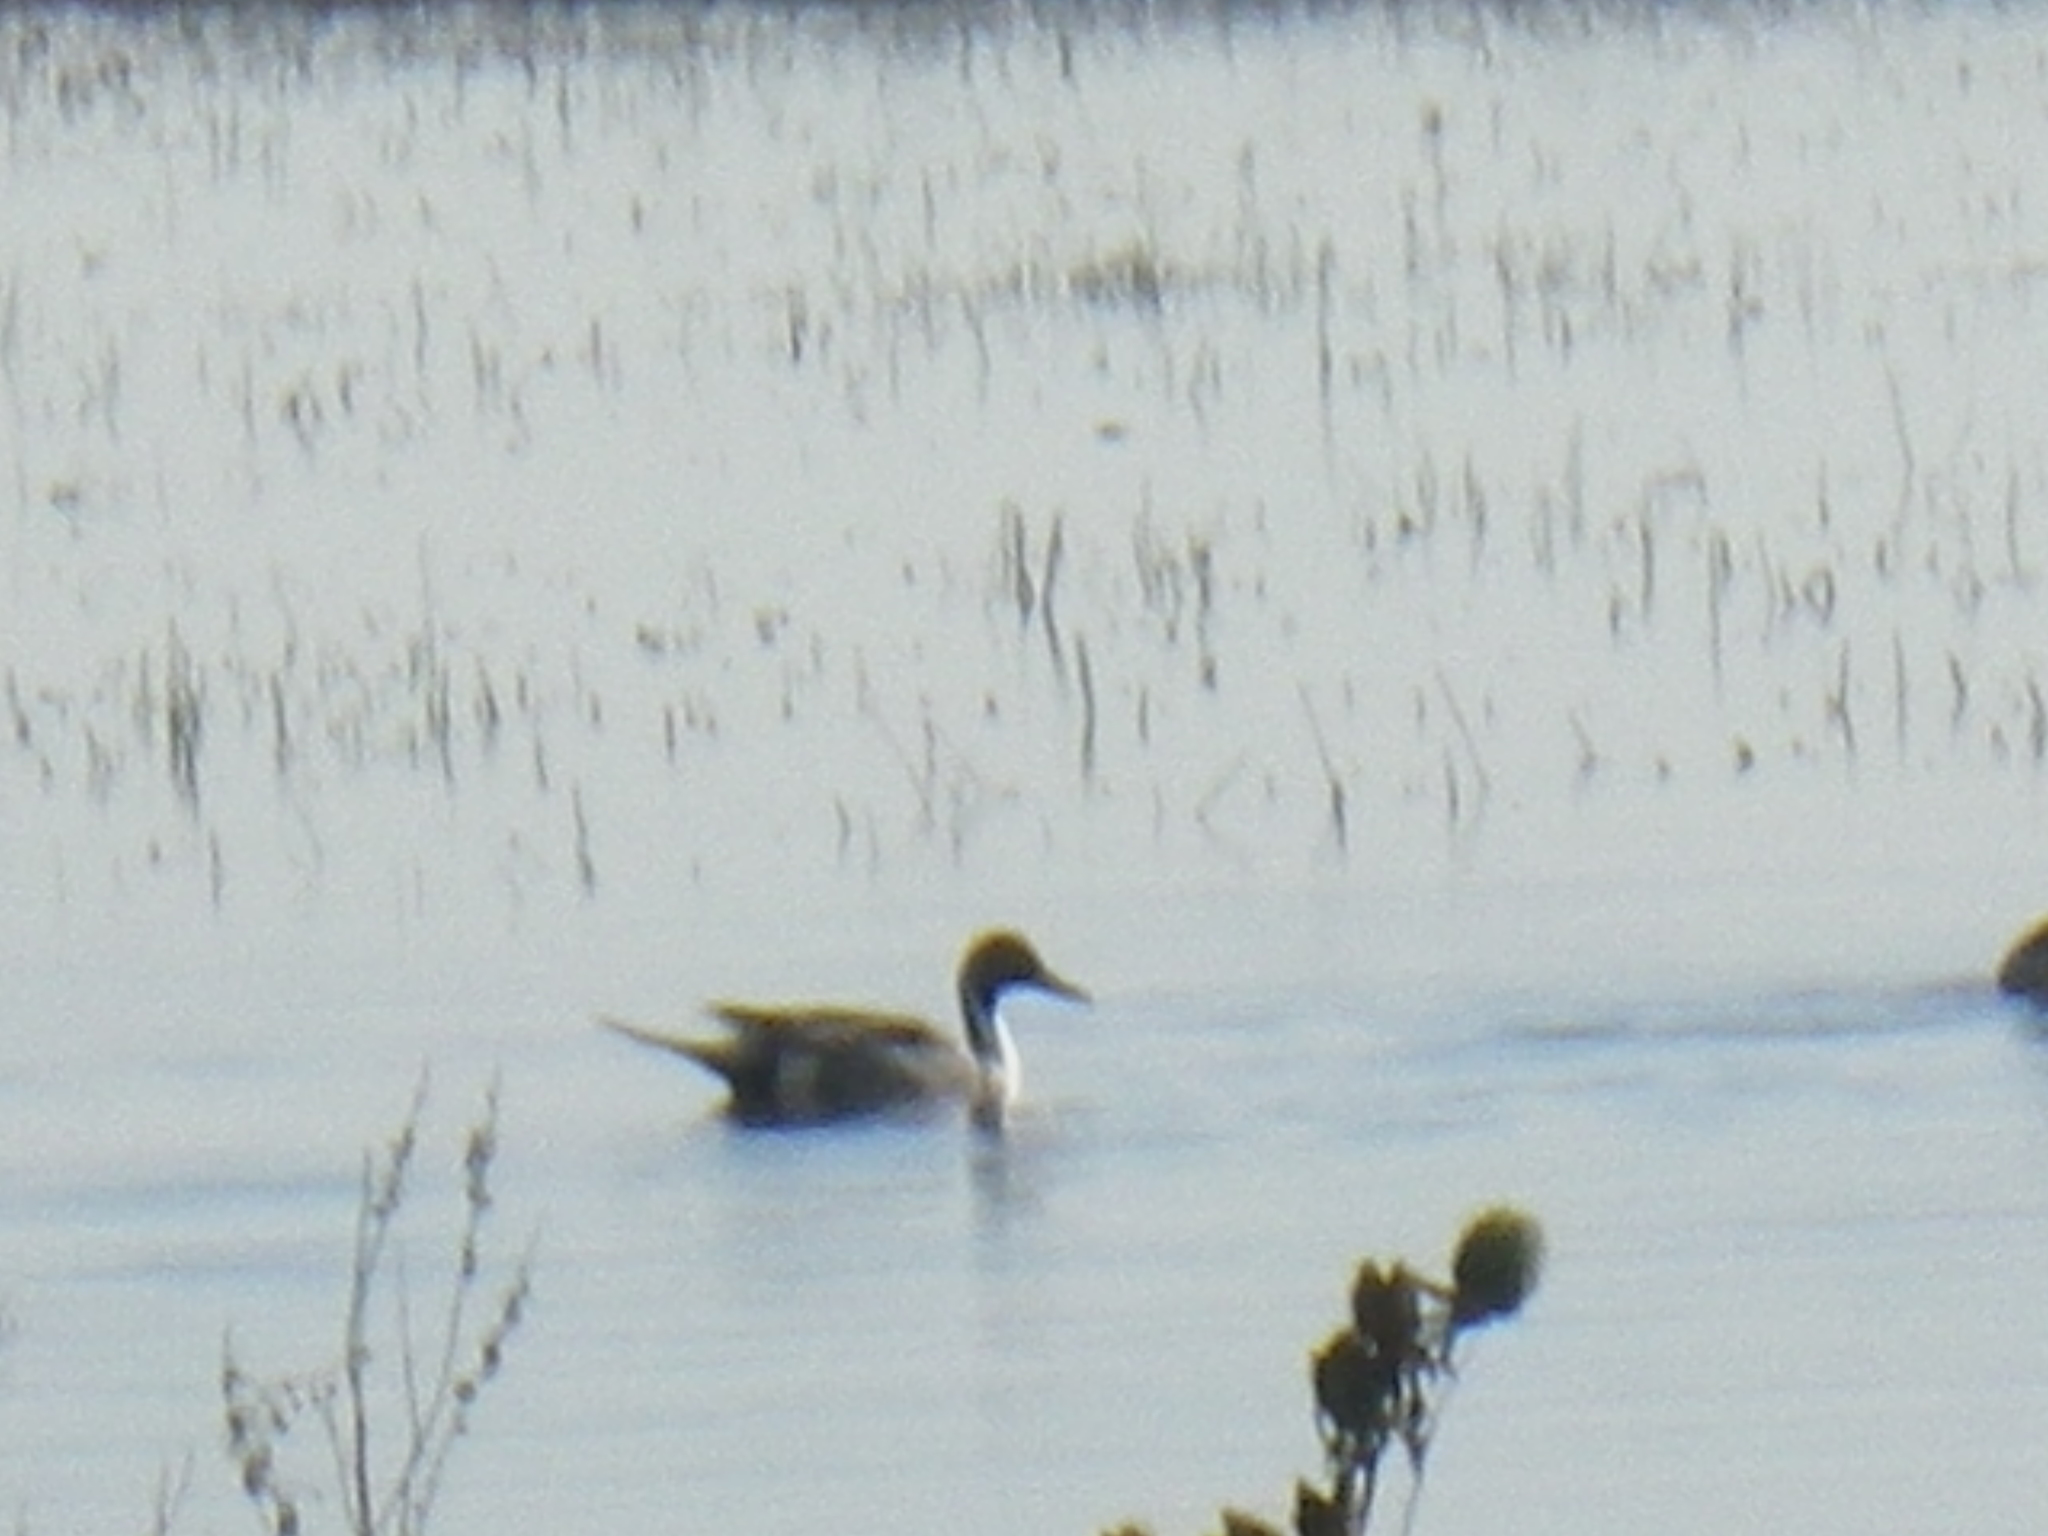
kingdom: Animalia
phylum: Chordata
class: Aves
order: Anseriformes
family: Anatidae
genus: Anas
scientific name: Anas acuta
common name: Northern pintail
